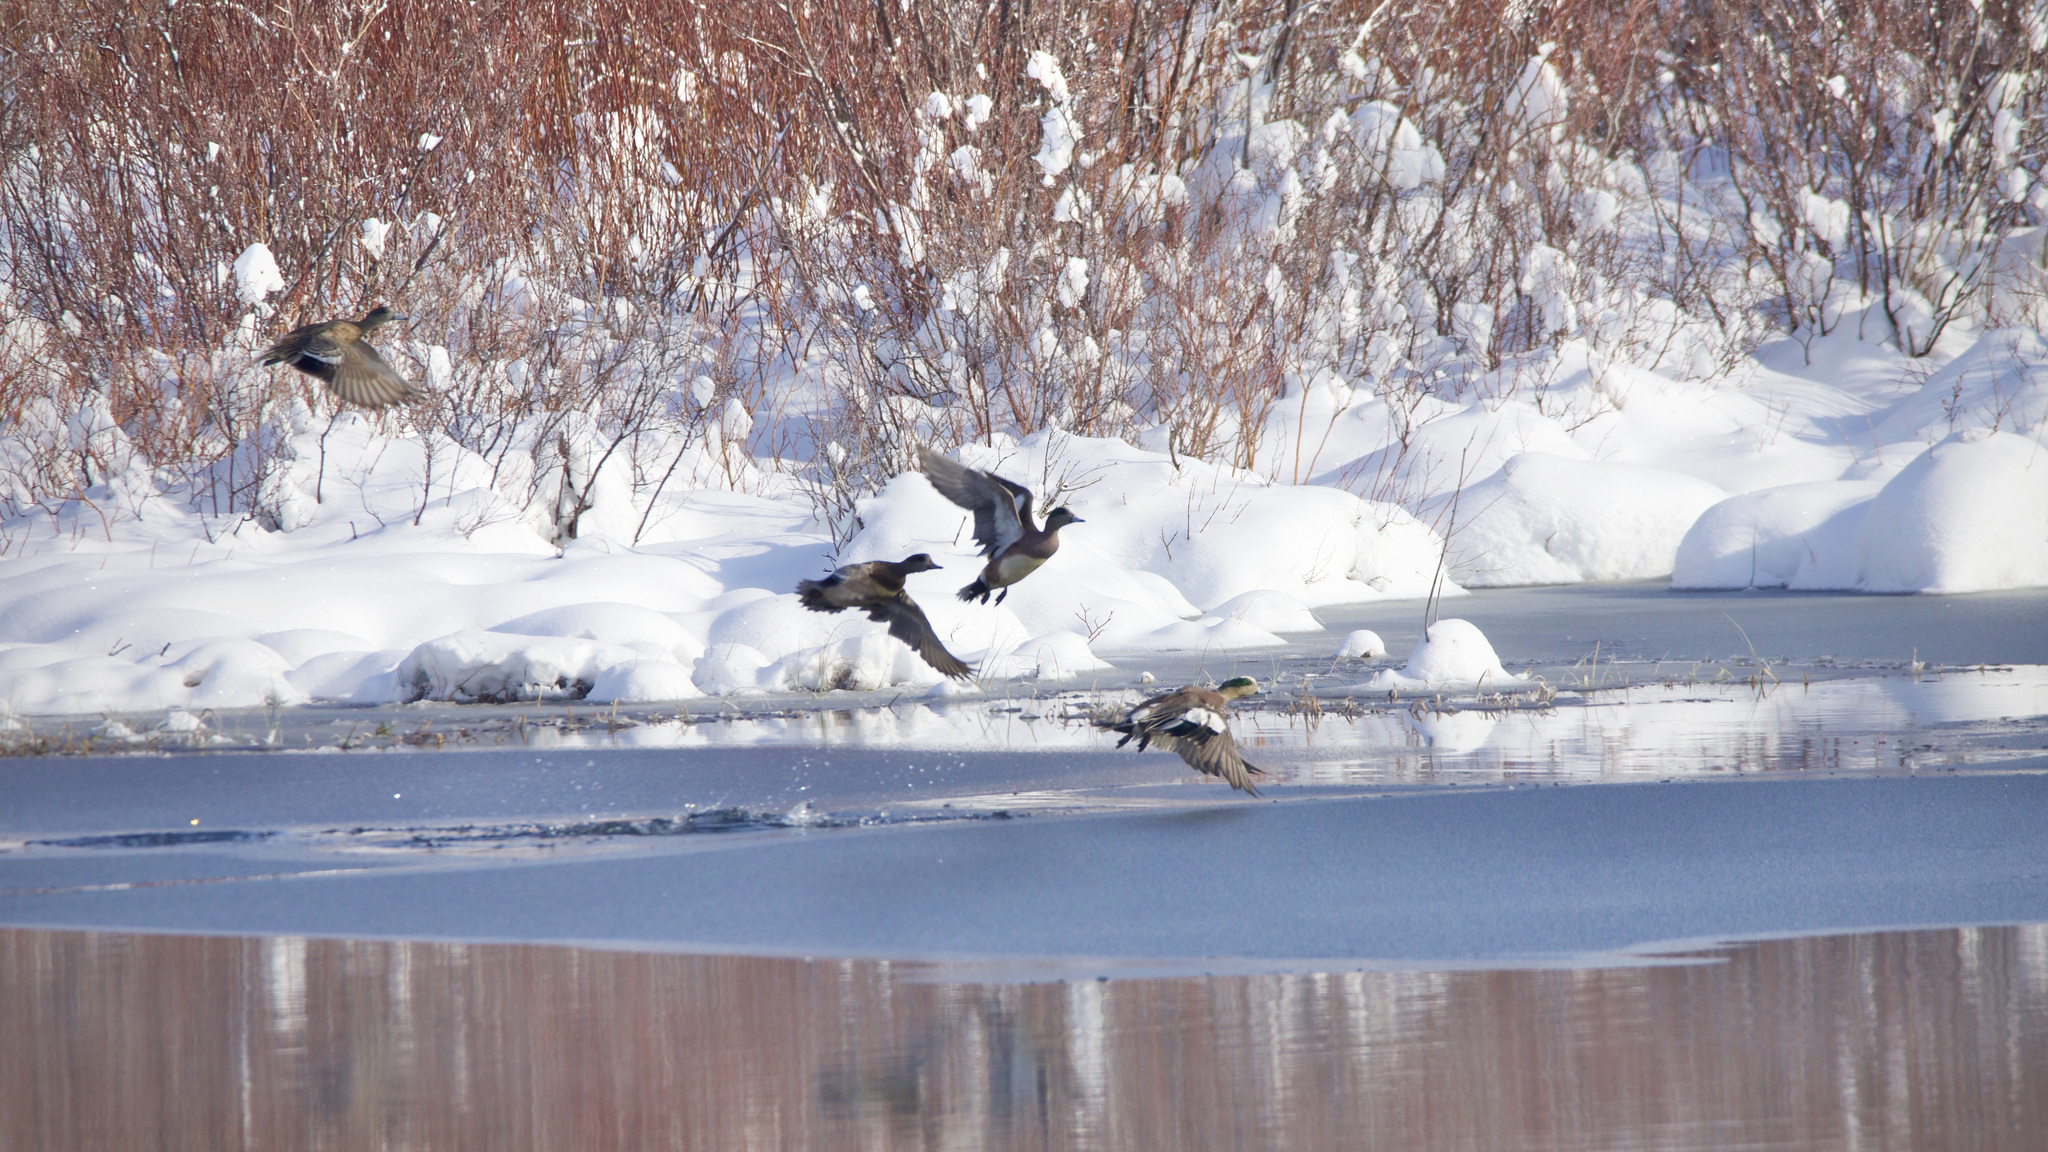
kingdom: Animalia
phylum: Chordata
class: Aves
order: Anseriformes
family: Anatidae
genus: Mareca
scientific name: Mareca americana
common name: American wigeon
